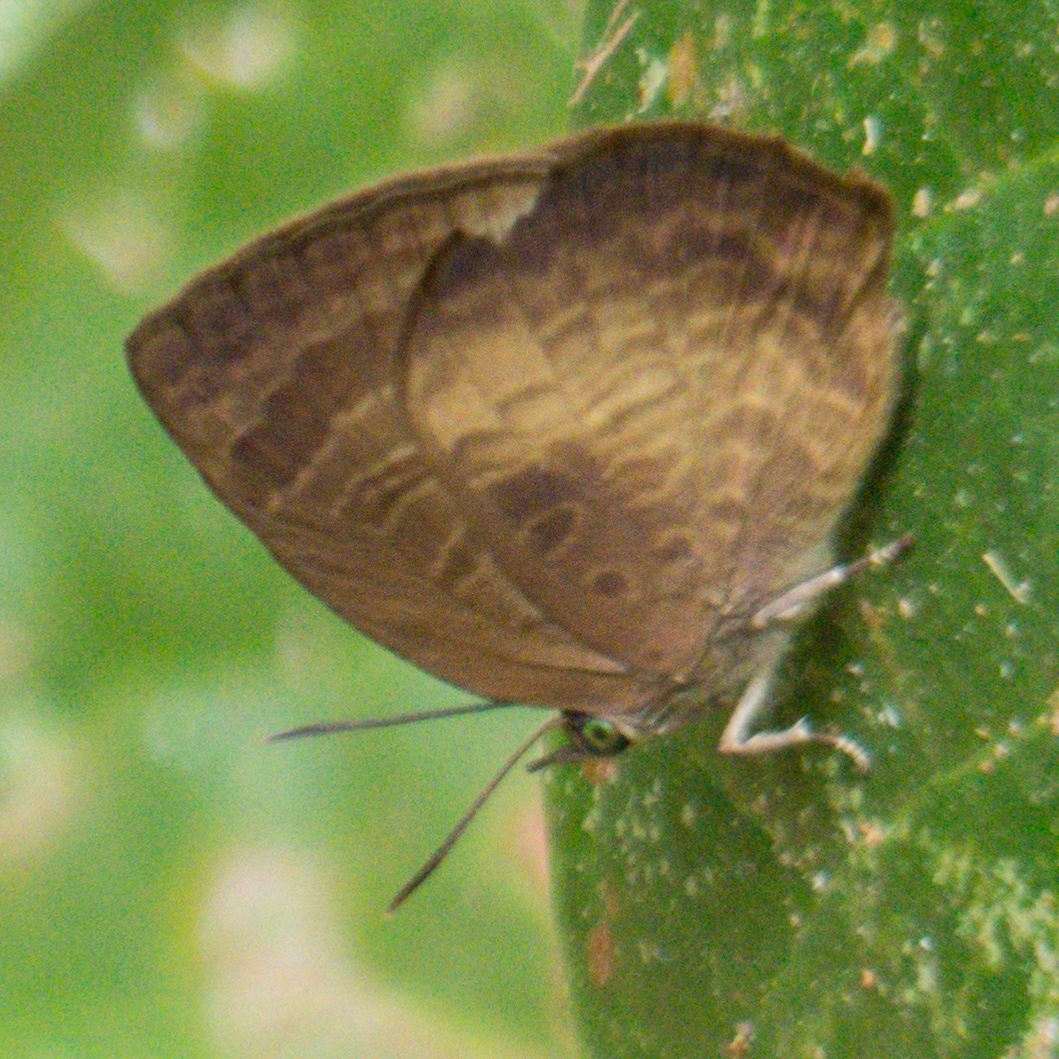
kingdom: Animalia
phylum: Arthropoda
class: Insecta
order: Lepidoptera
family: Lycaenidae
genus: Arhopala
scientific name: Arhopala perimuta
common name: Yellowdisc oakblue
